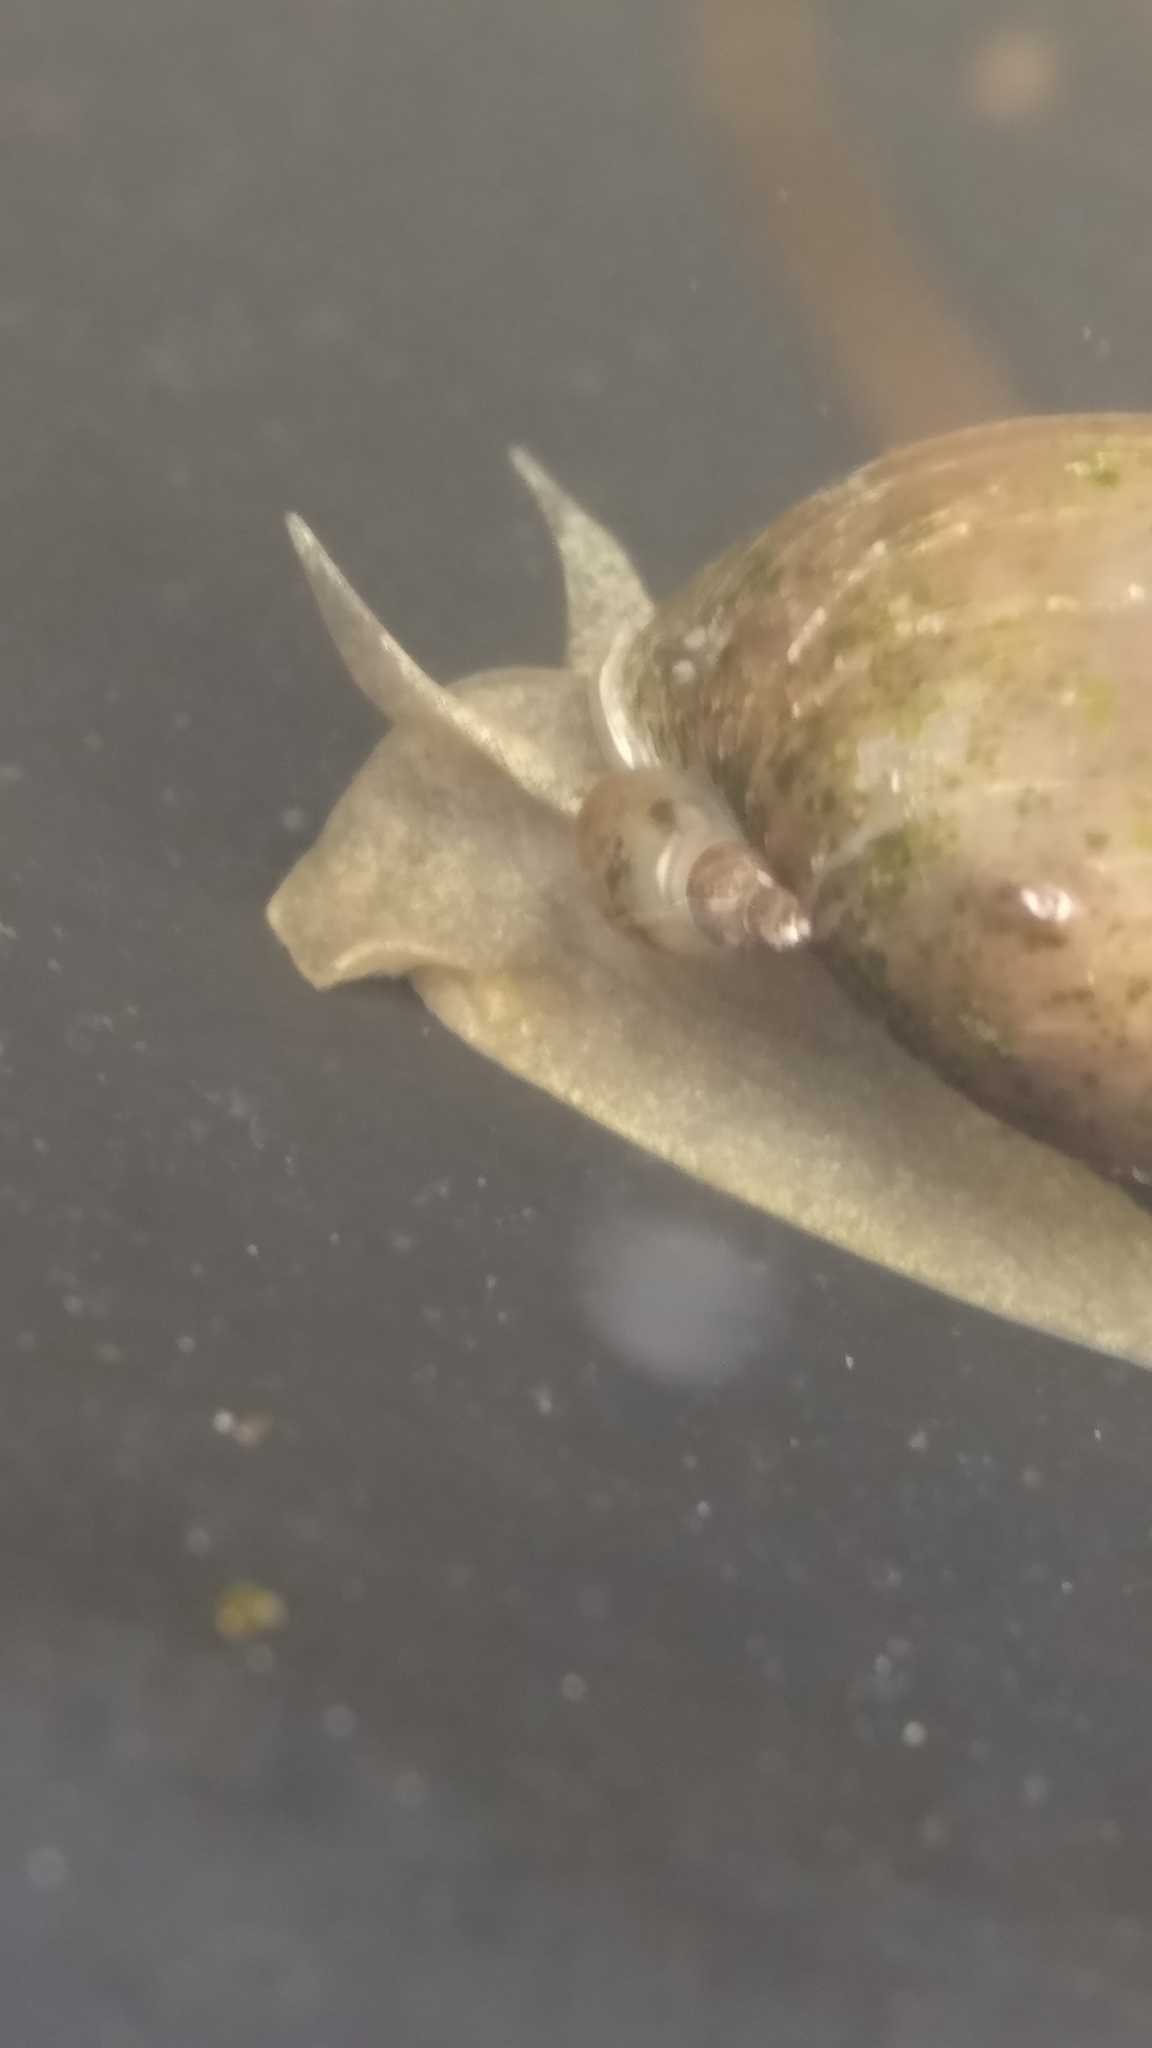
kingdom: Animalia
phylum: Mollusca
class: Gastropoda
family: Lymnaeidae
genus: Lymnaea
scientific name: Lymnaea stagnalis
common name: Great pond snail
